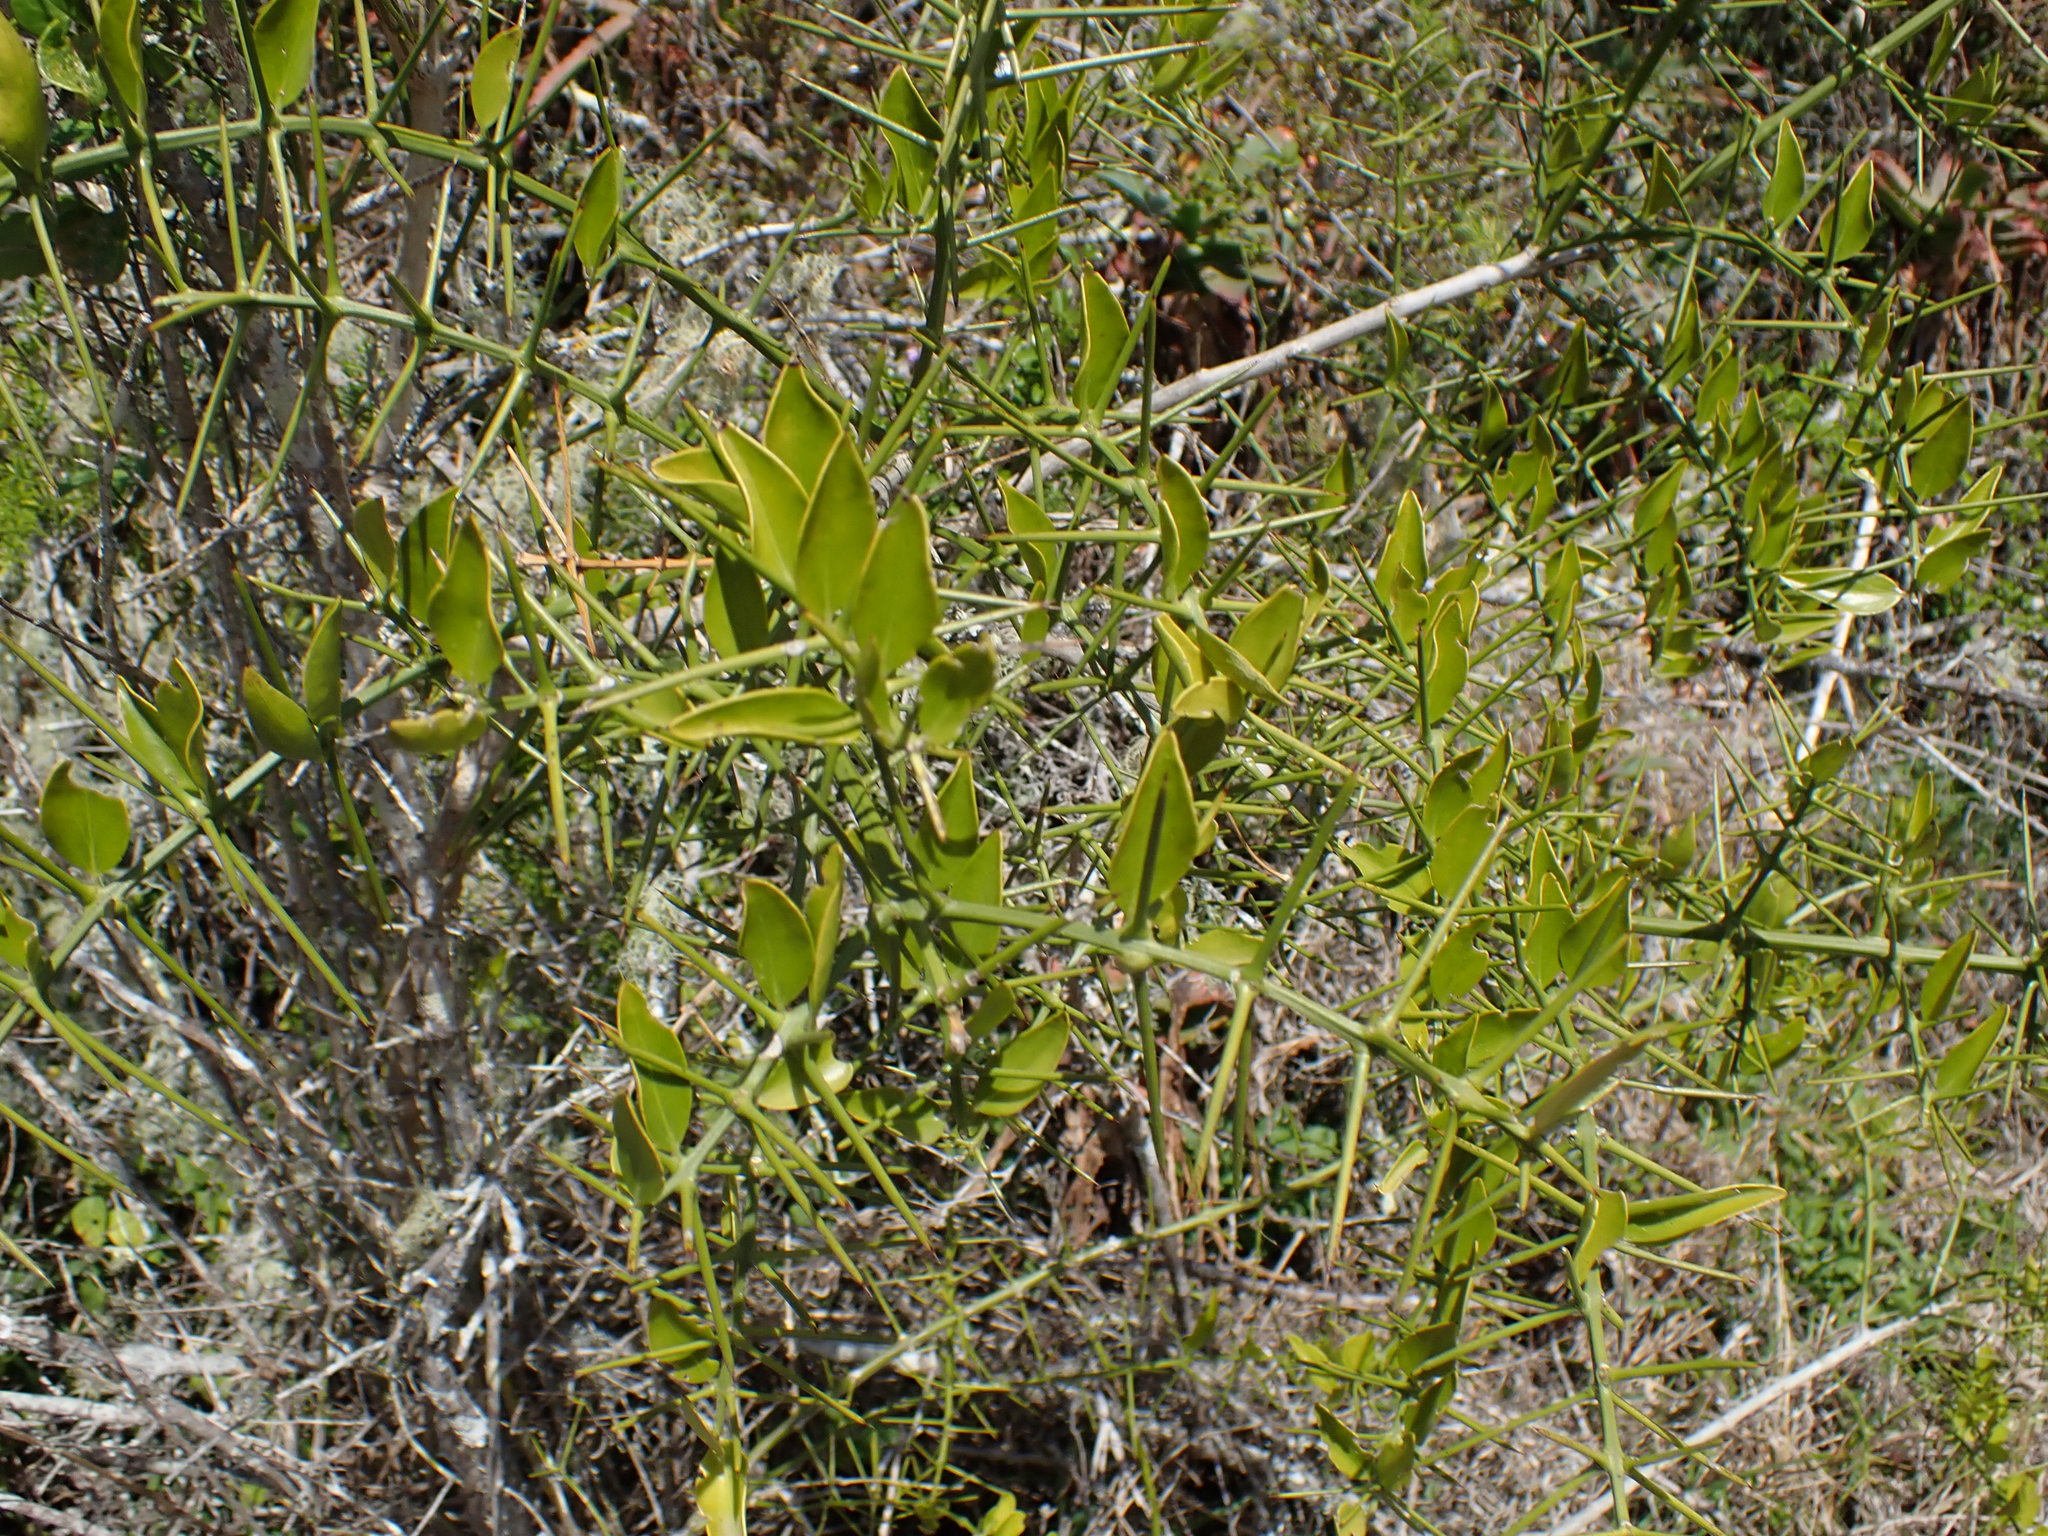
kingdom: Plantae
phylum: Tracheophyta
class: Magnoliopsida
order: Brassicales
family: Salvadoraceae
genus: Azima
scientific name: Azima tetracantha
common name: Needle bush
